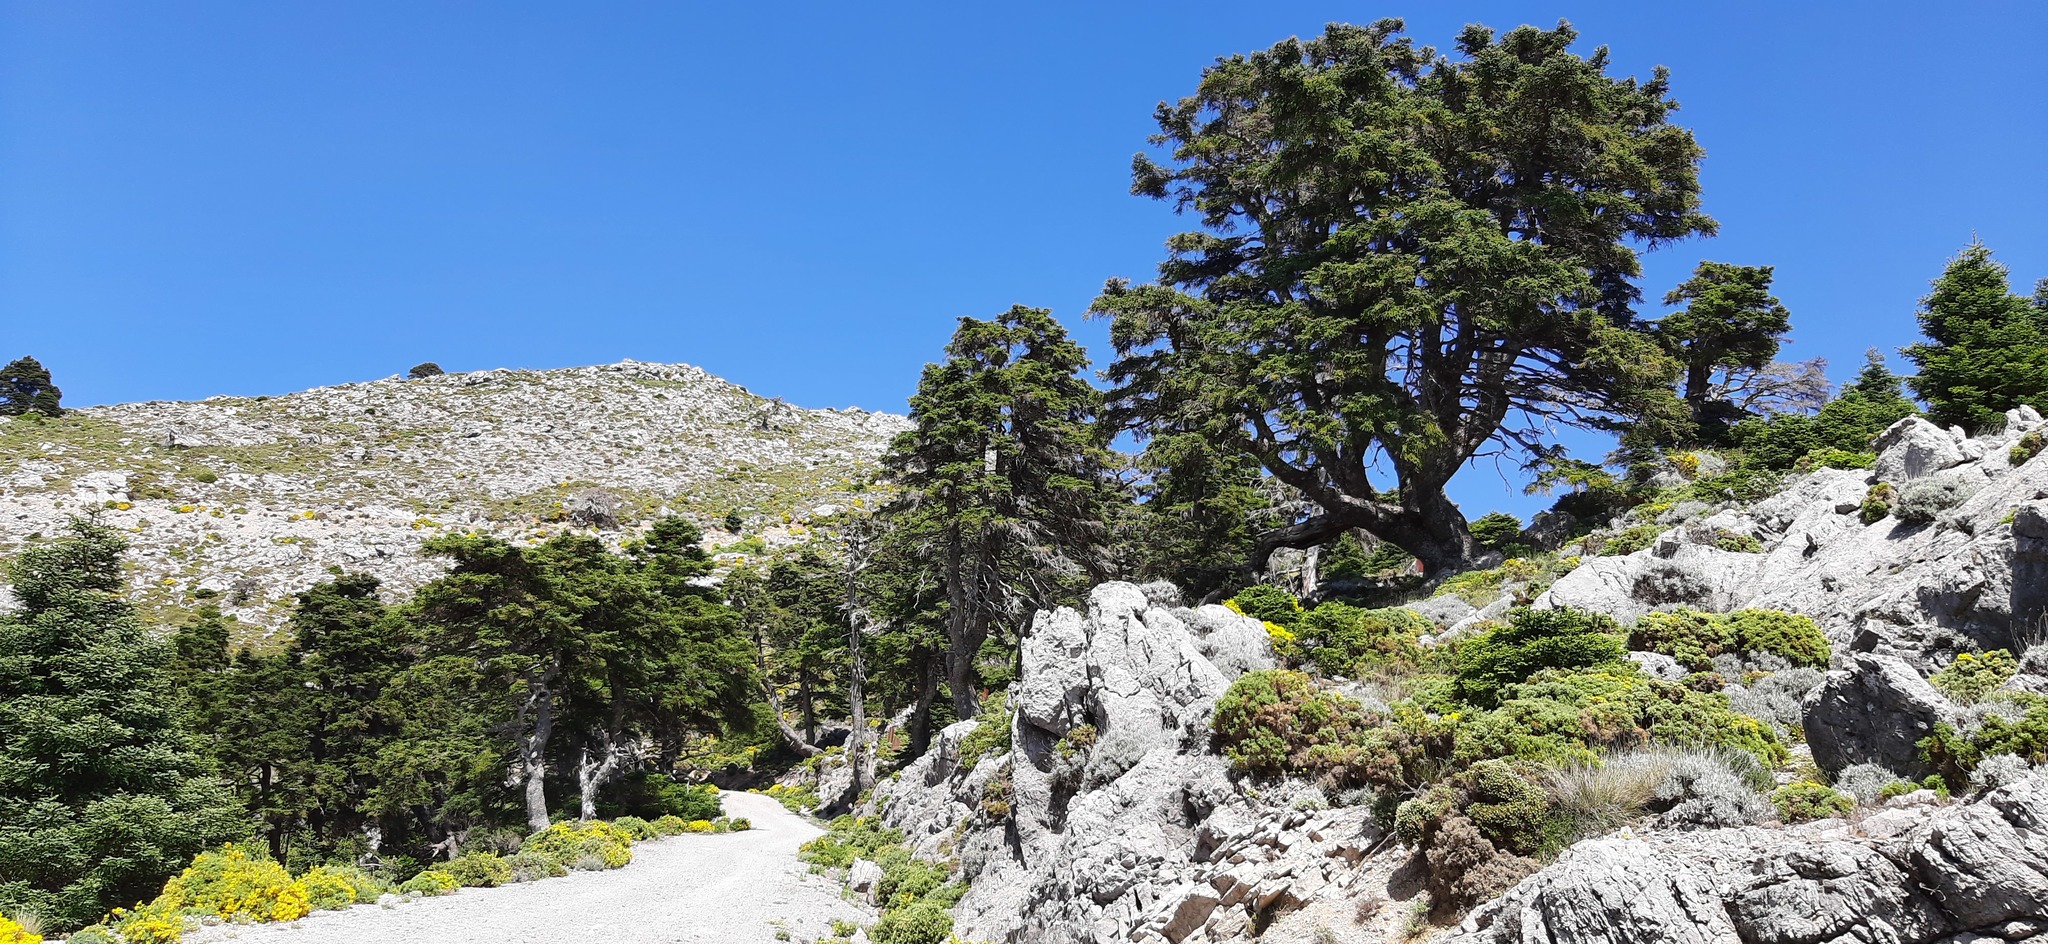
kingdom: Plantae
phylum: Tracheophyta
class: Pinopsida
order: Pinales
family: Pinaceae
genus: Abies
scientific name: Abies pinsapo
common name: Spanish fir
